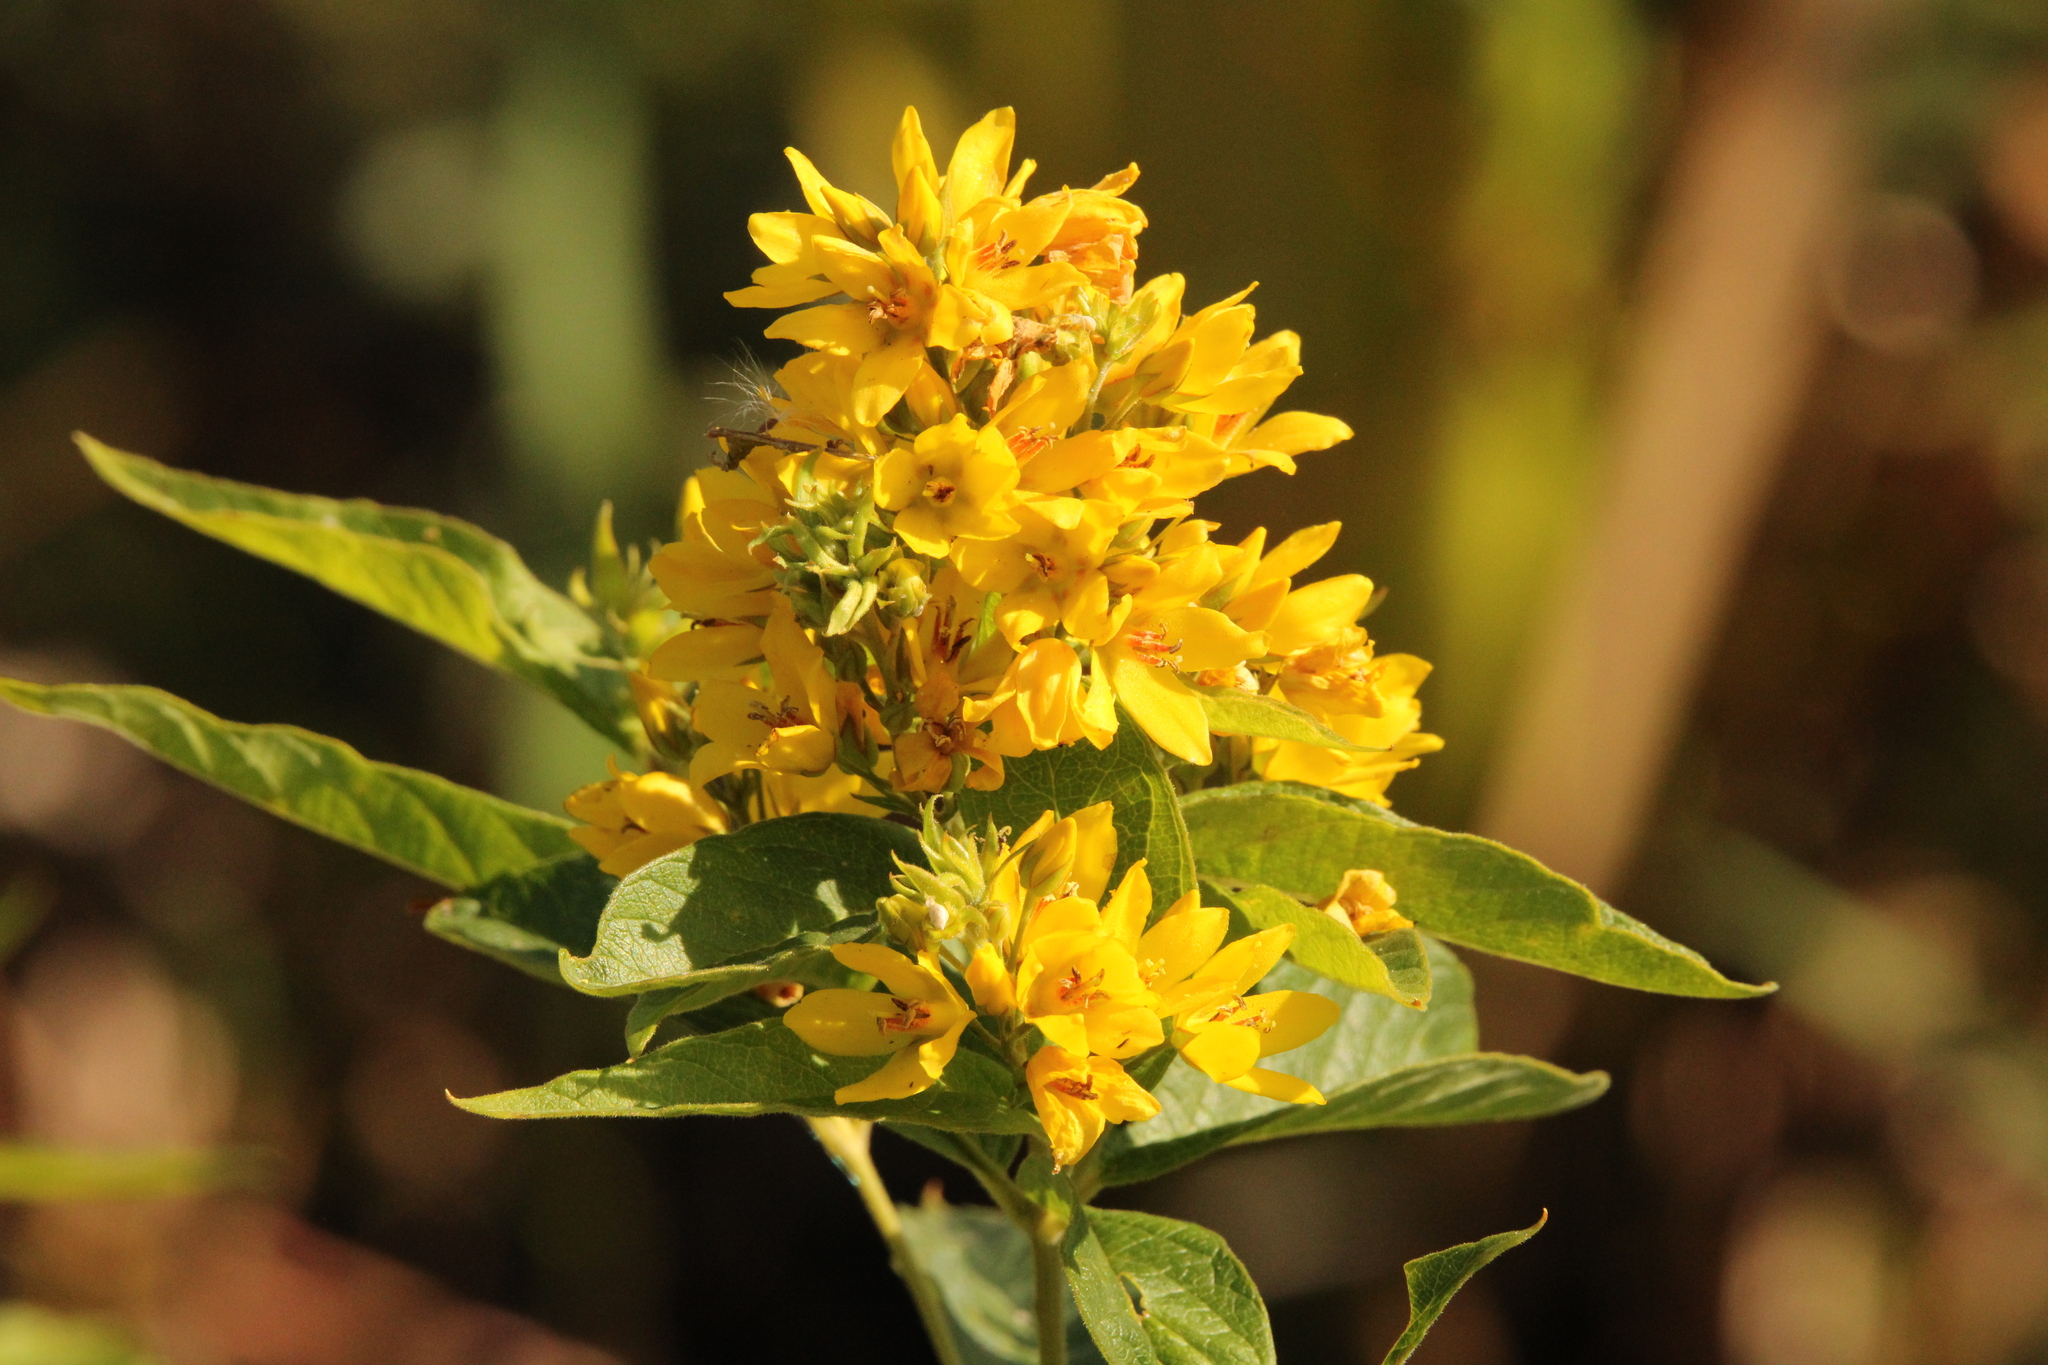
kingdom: Plantae
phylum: Tracheophyta
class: Magnoliopsida
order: Ericales
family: Primulaceae
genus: Lysimachia
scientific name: Lysimachia vulgaris
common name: Yellow loosestrife
